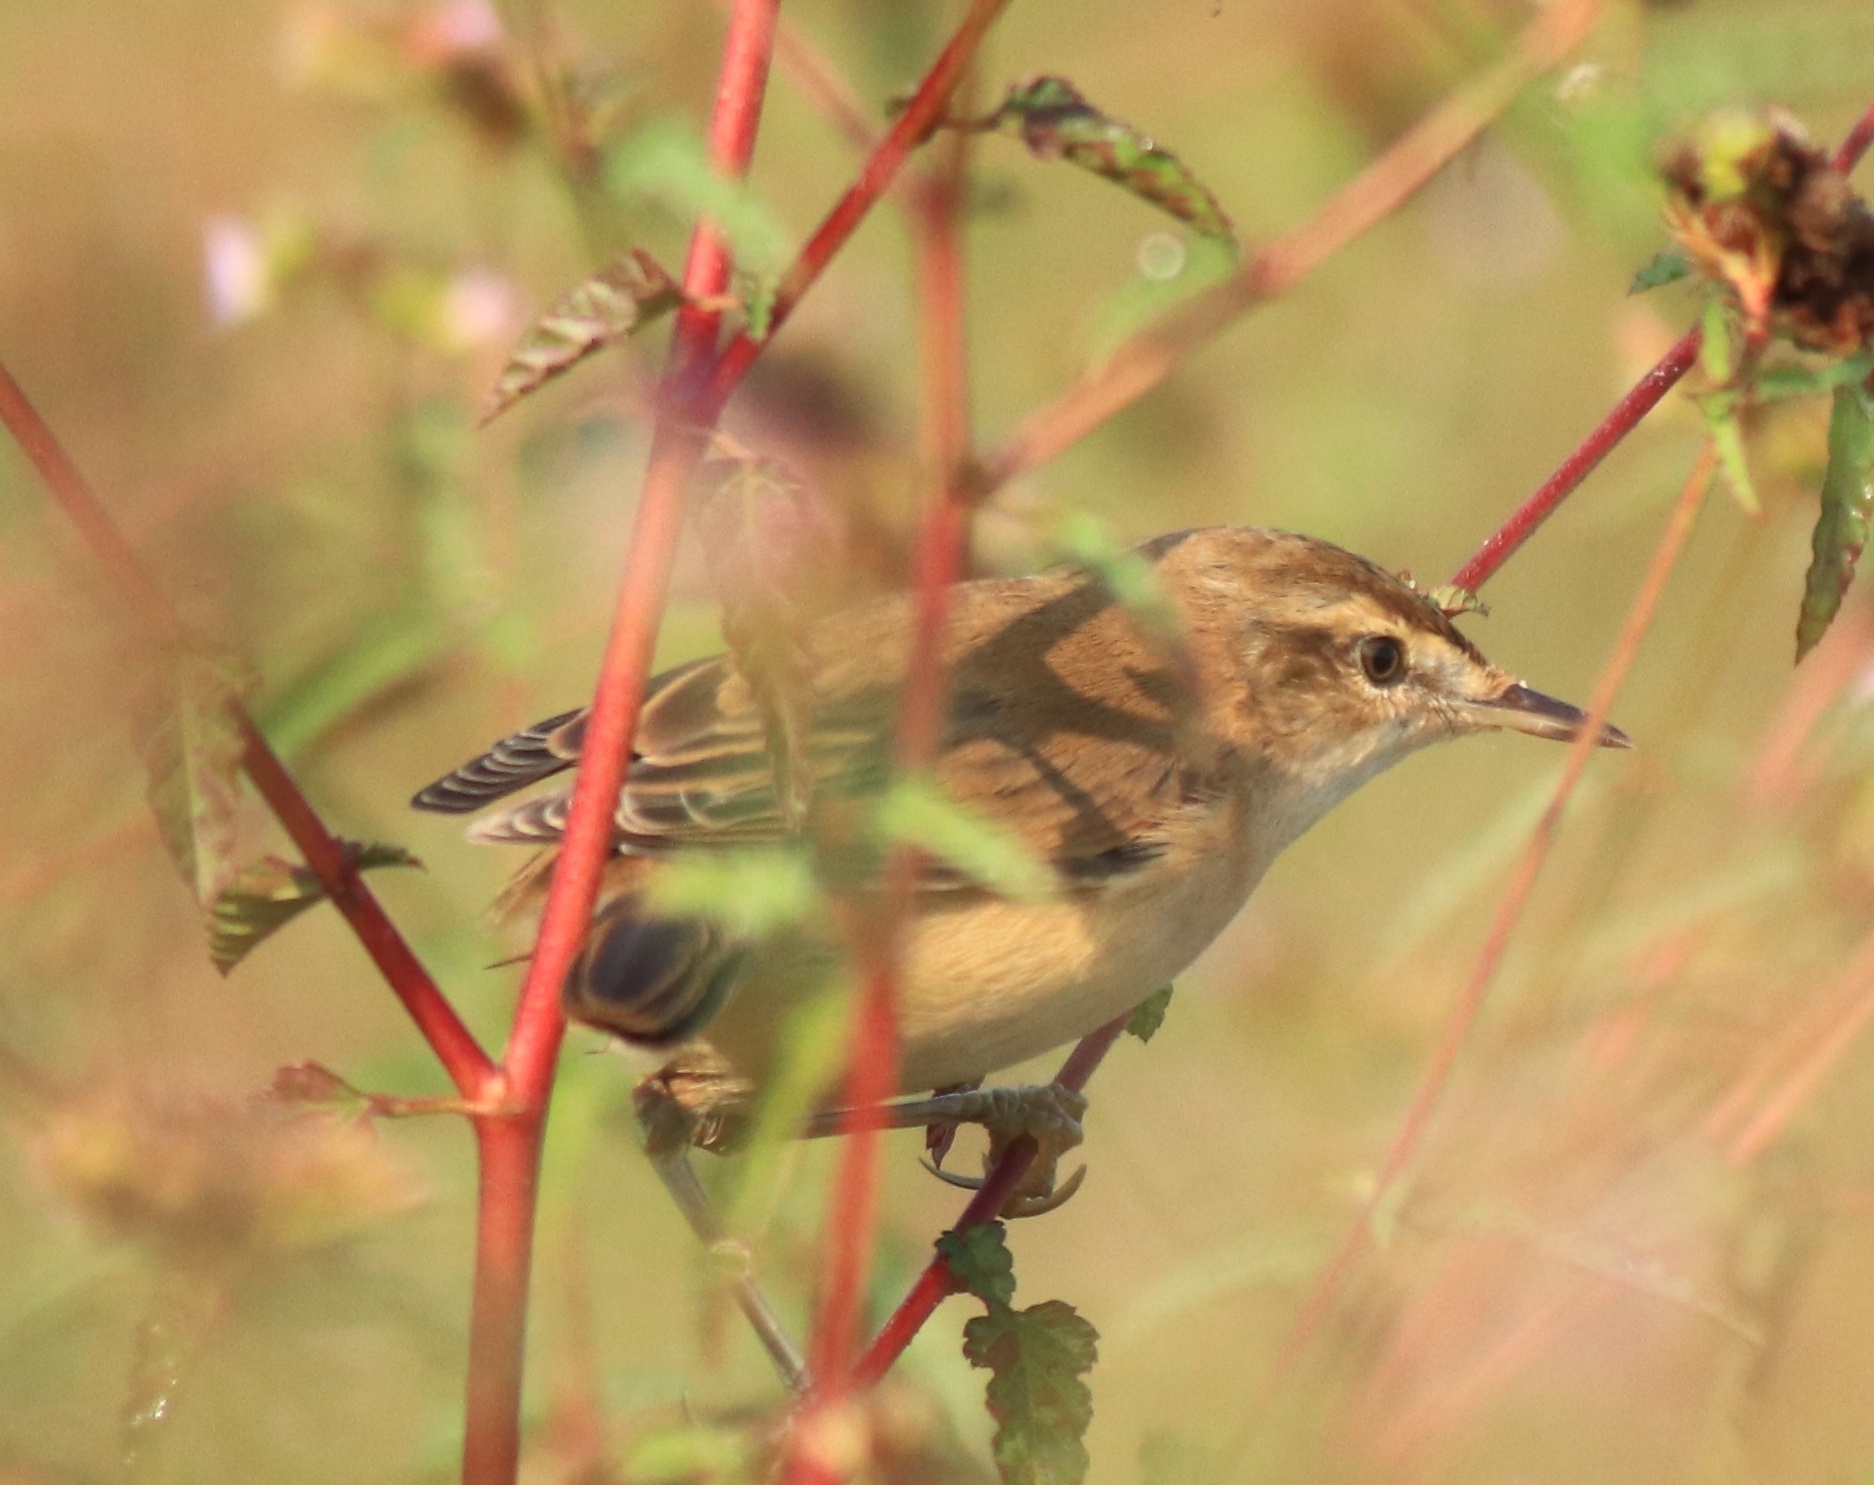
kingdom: Animalia
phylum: Chordata
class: Aves
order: Passeriformes
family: Acrocephalidae
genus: Acrocephalus
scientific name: Acrocephalus agricola
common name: Paddyfield warbler
